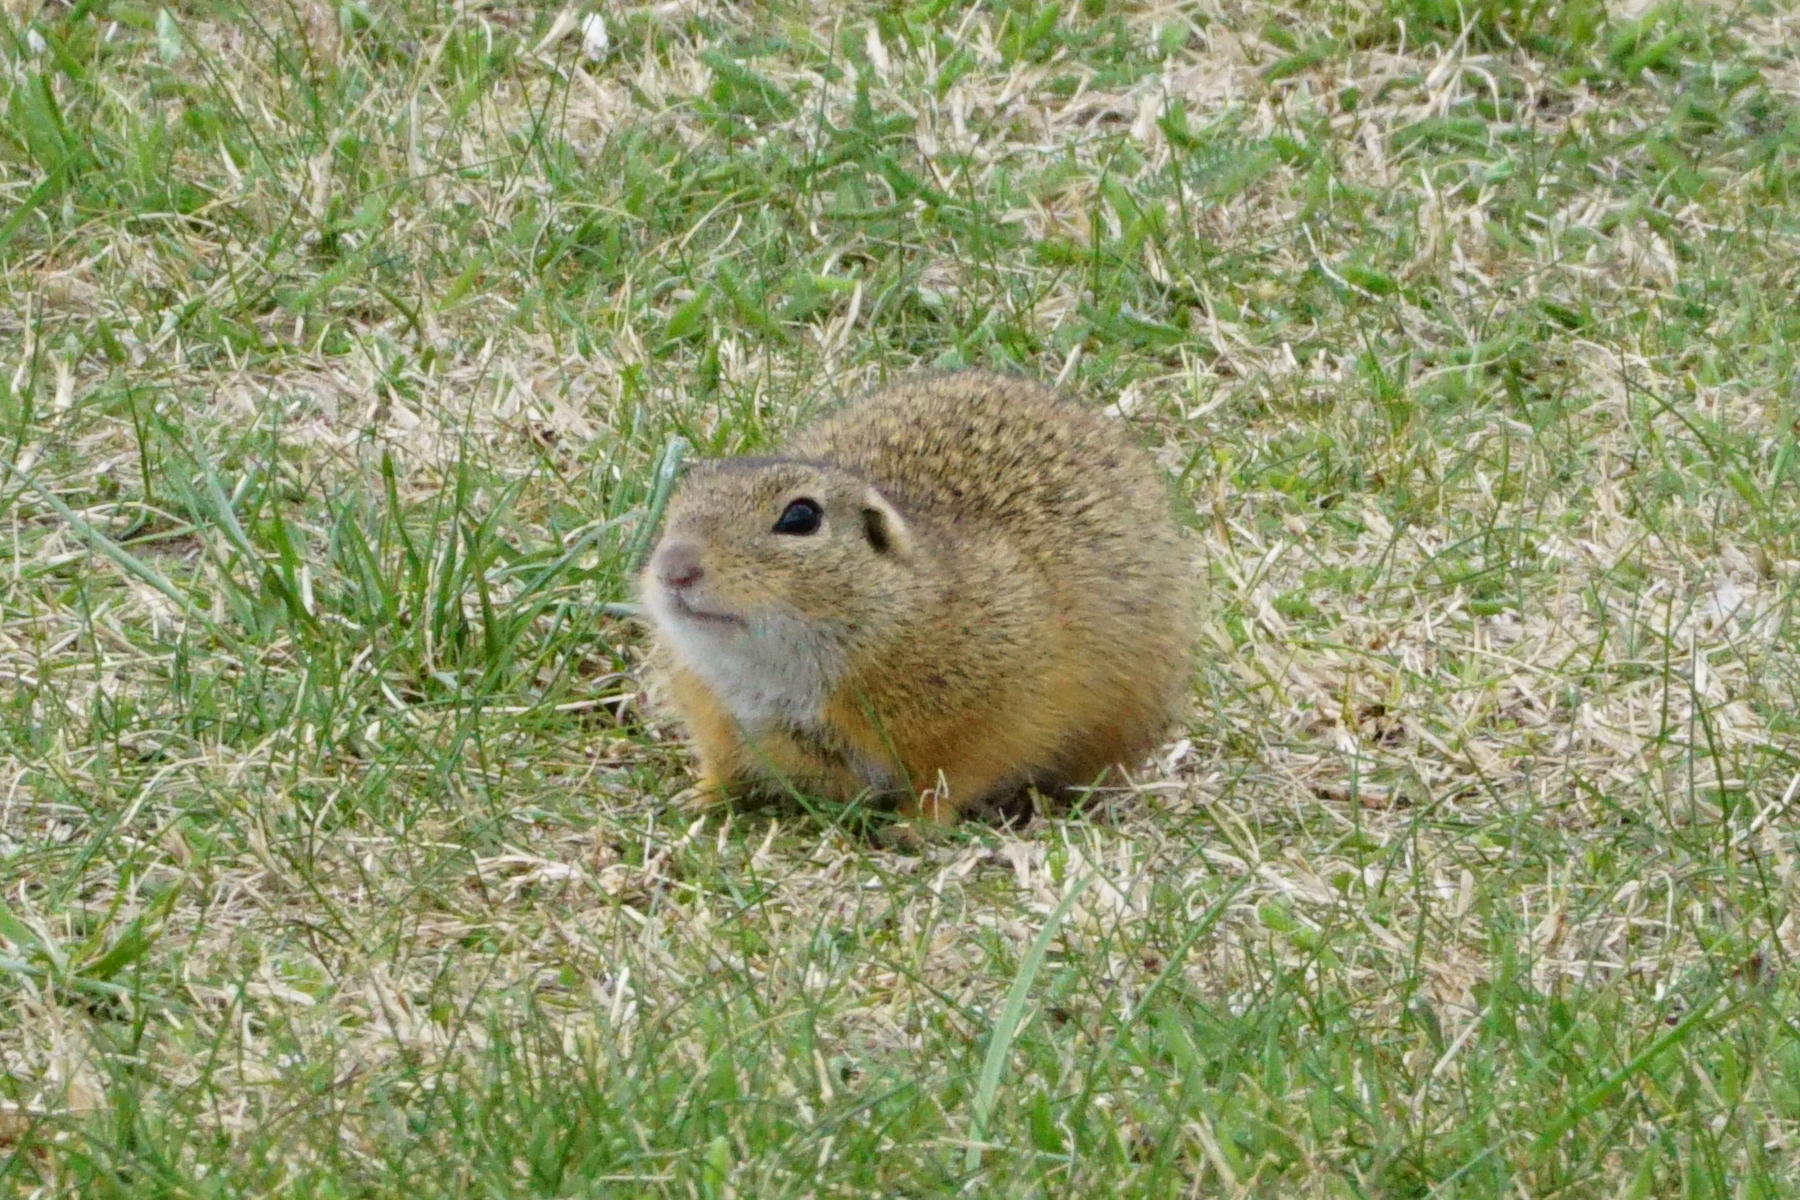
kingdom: Animalia
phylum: Chordata
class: Mammalia
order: Rodentia
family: Sciuridae
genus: Spermophilus
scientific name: Spermophilus citellus
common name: European ground squirrel
